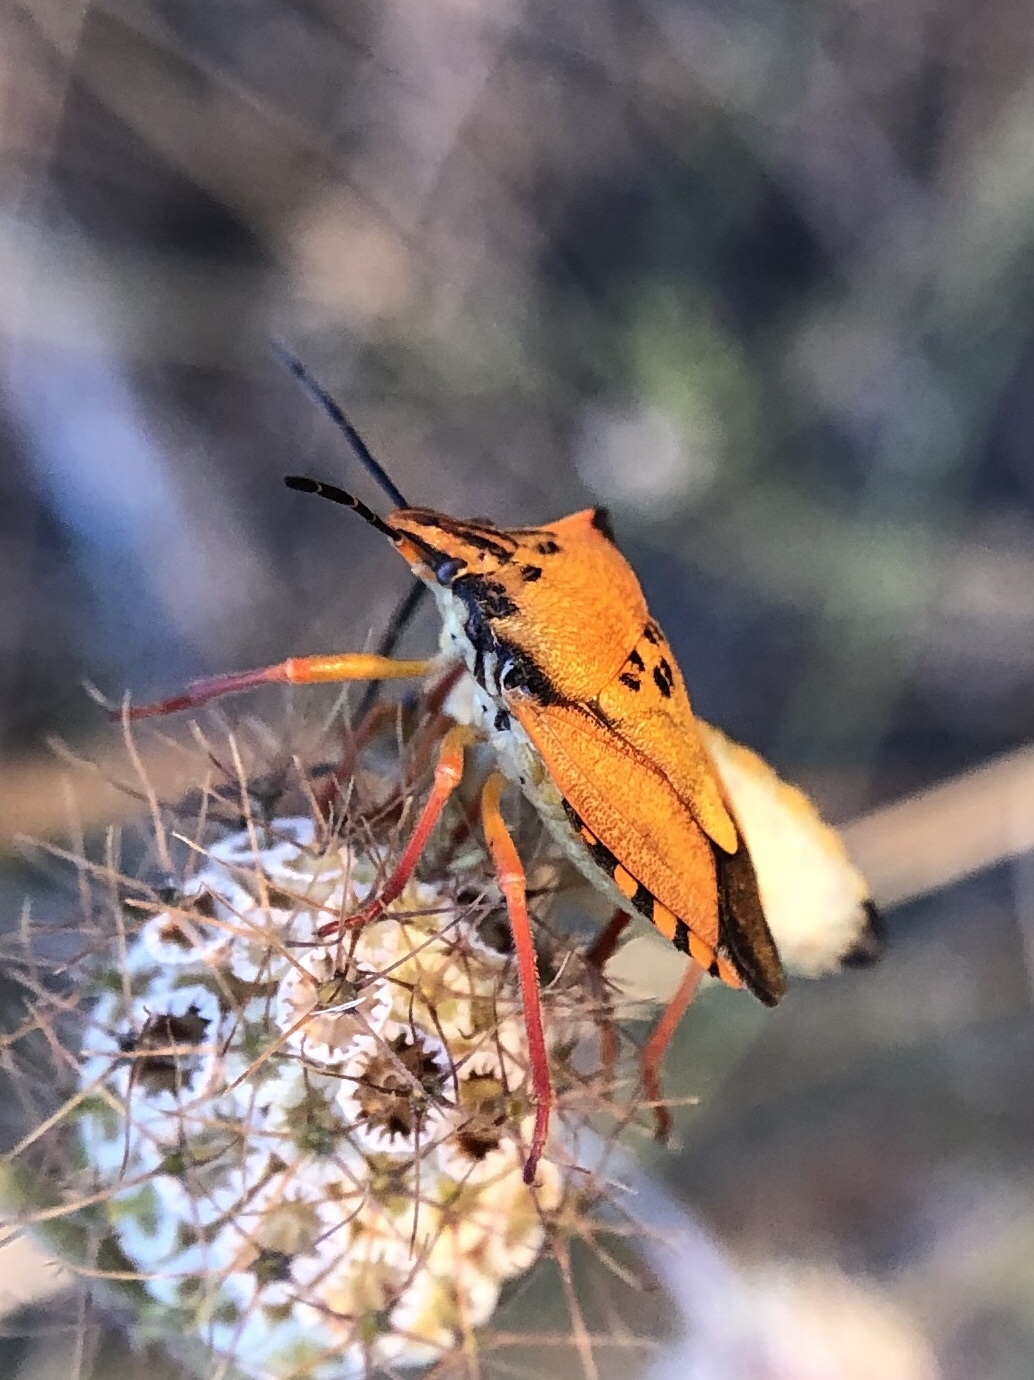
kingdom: Animalia
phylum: Arthropoda
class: Insecta
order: Hemiptera
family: Pentatomidae
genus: Carpocoris
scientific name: Carpocoris mediterraneus
